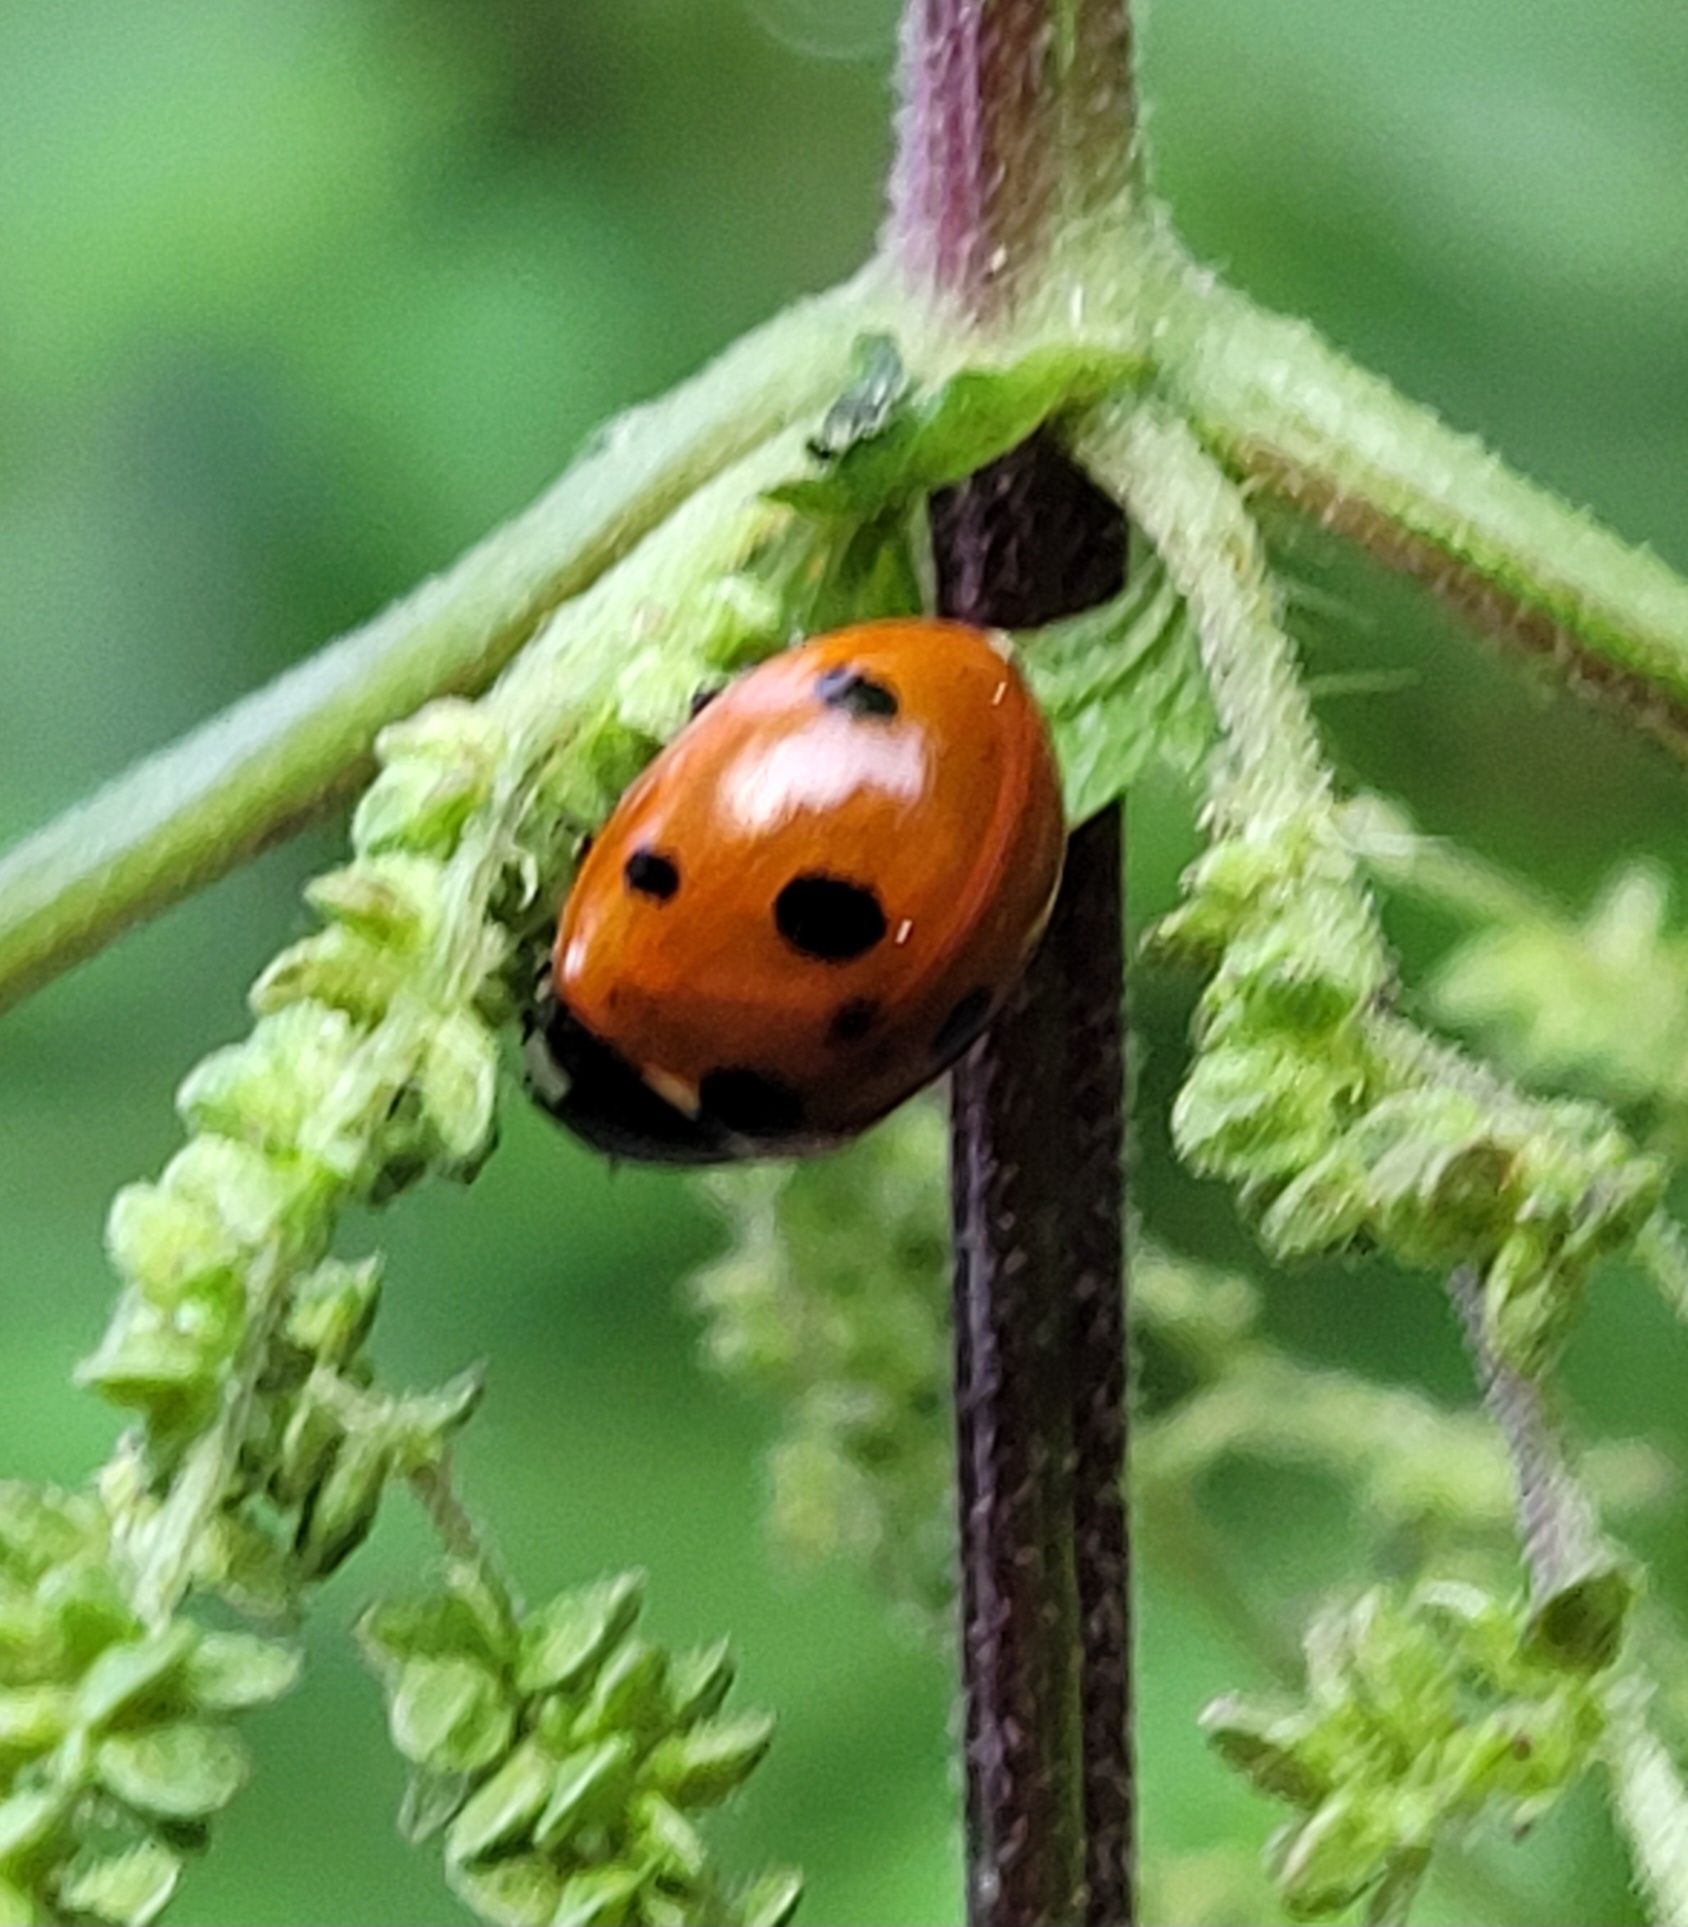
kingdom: Animalia
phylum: Arthropoda
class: Insecta
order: Coleoptera
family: Coccinellidae
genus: Coccinella
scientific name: Coccinella septempunctata
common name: Sevenspotted lady beetle
